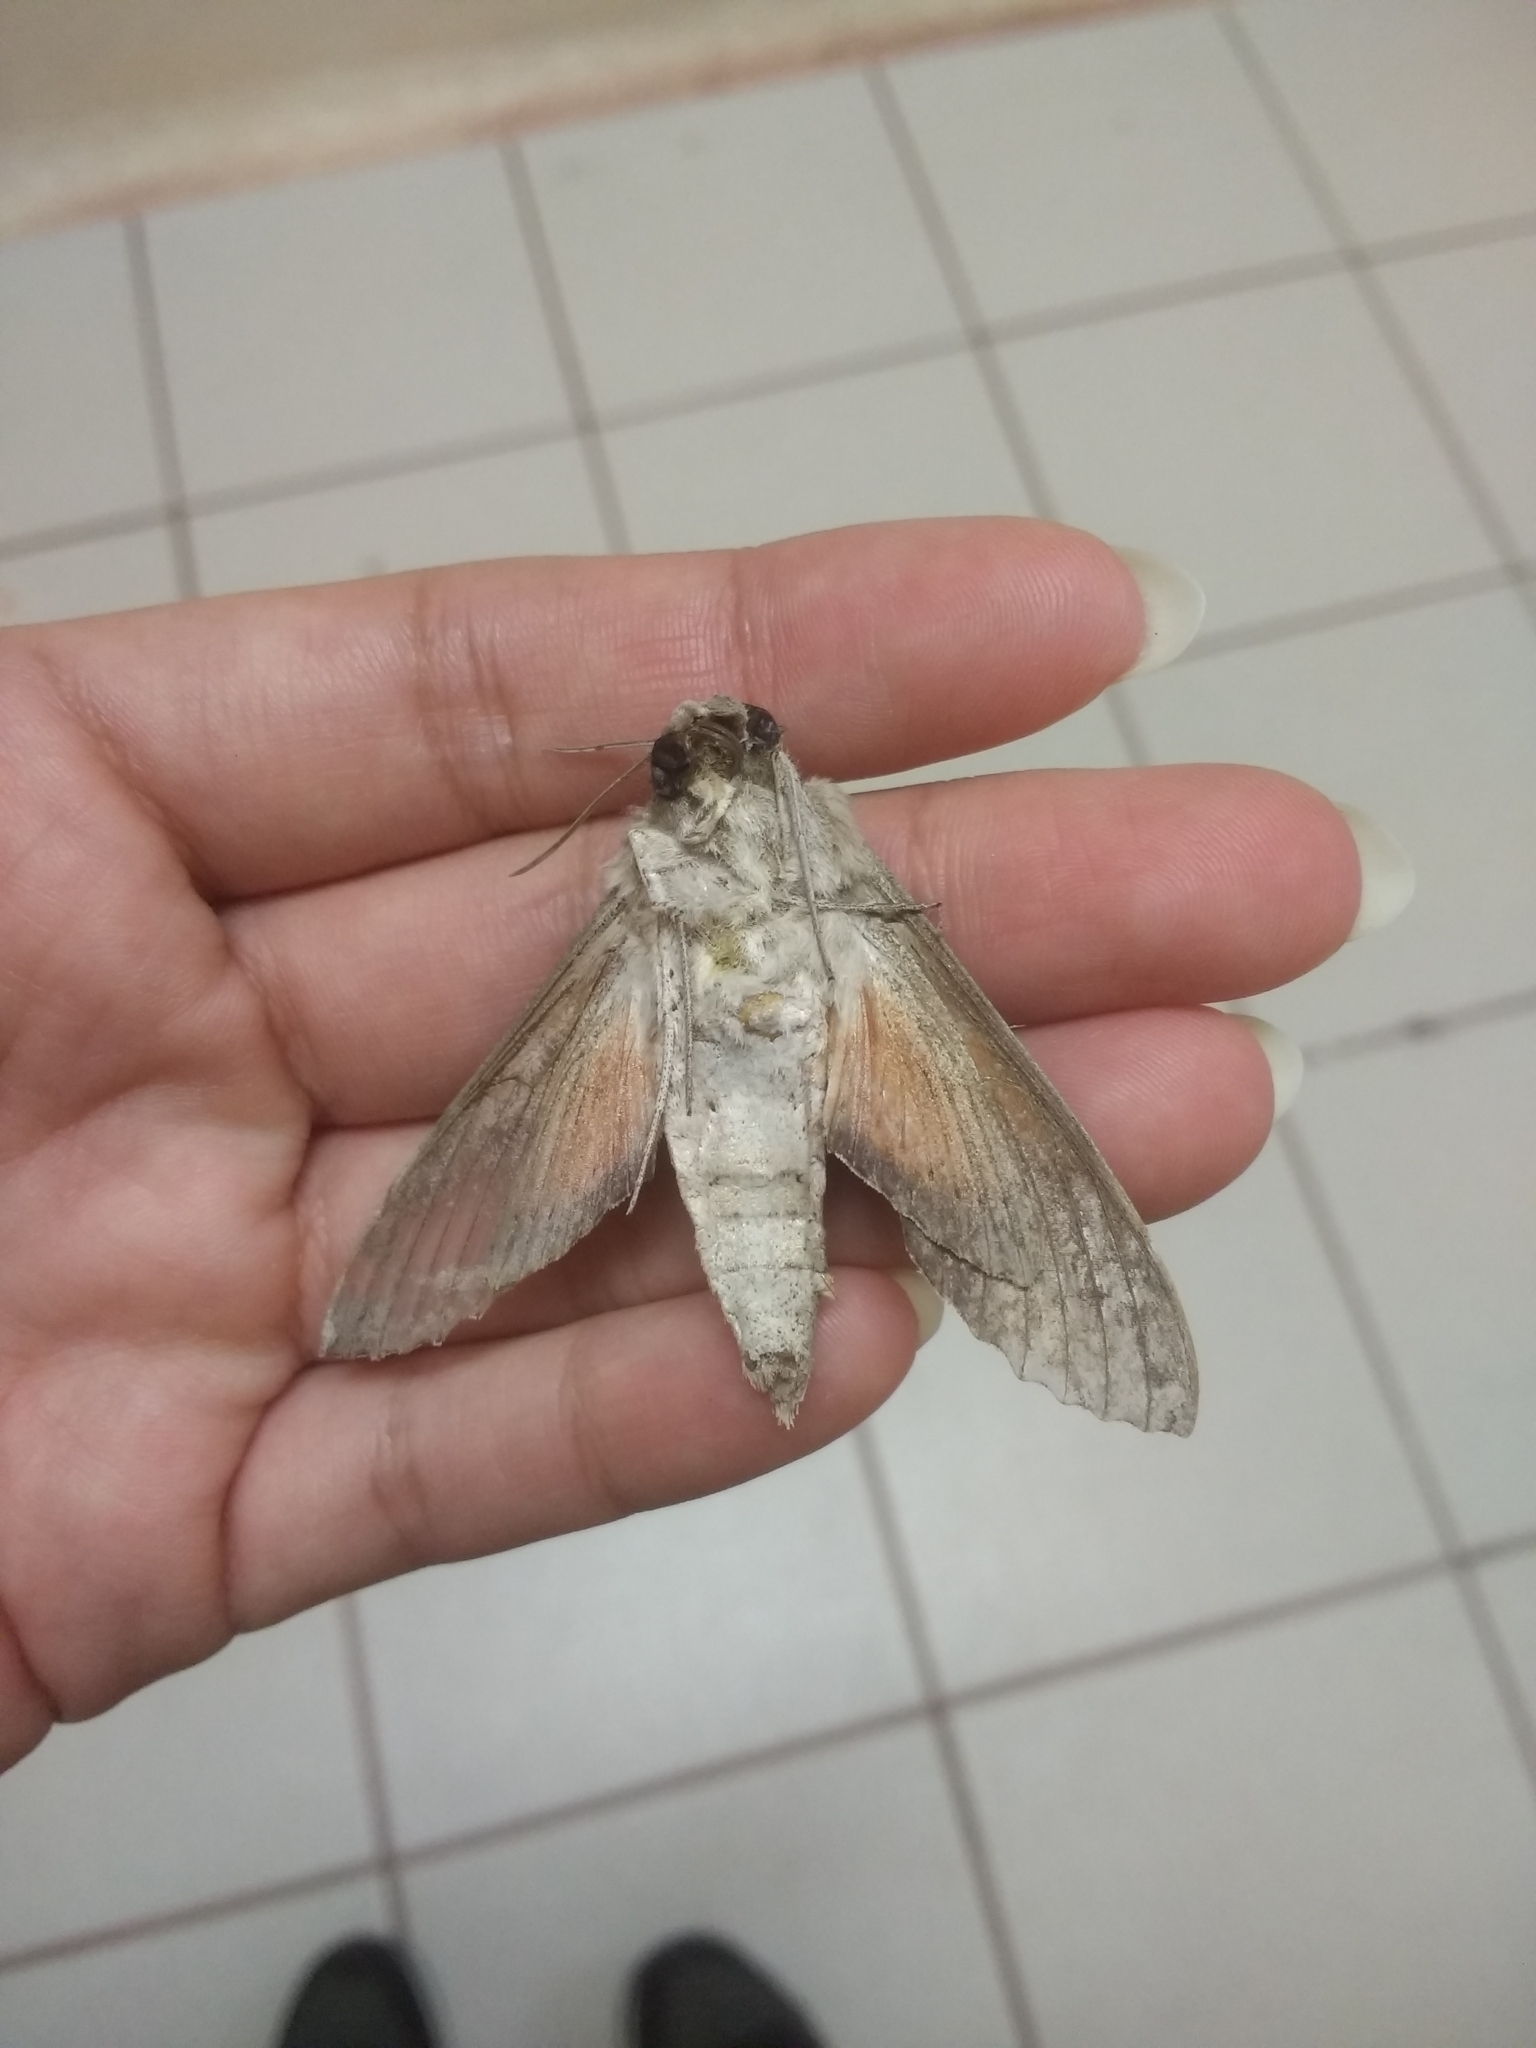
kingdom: Animalia
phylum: Arthropoda
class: Insecta
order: Lepidoptera
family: Sphingidae
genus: Erinnyis
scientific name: Erinnyis ello
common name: Ello sphinx
